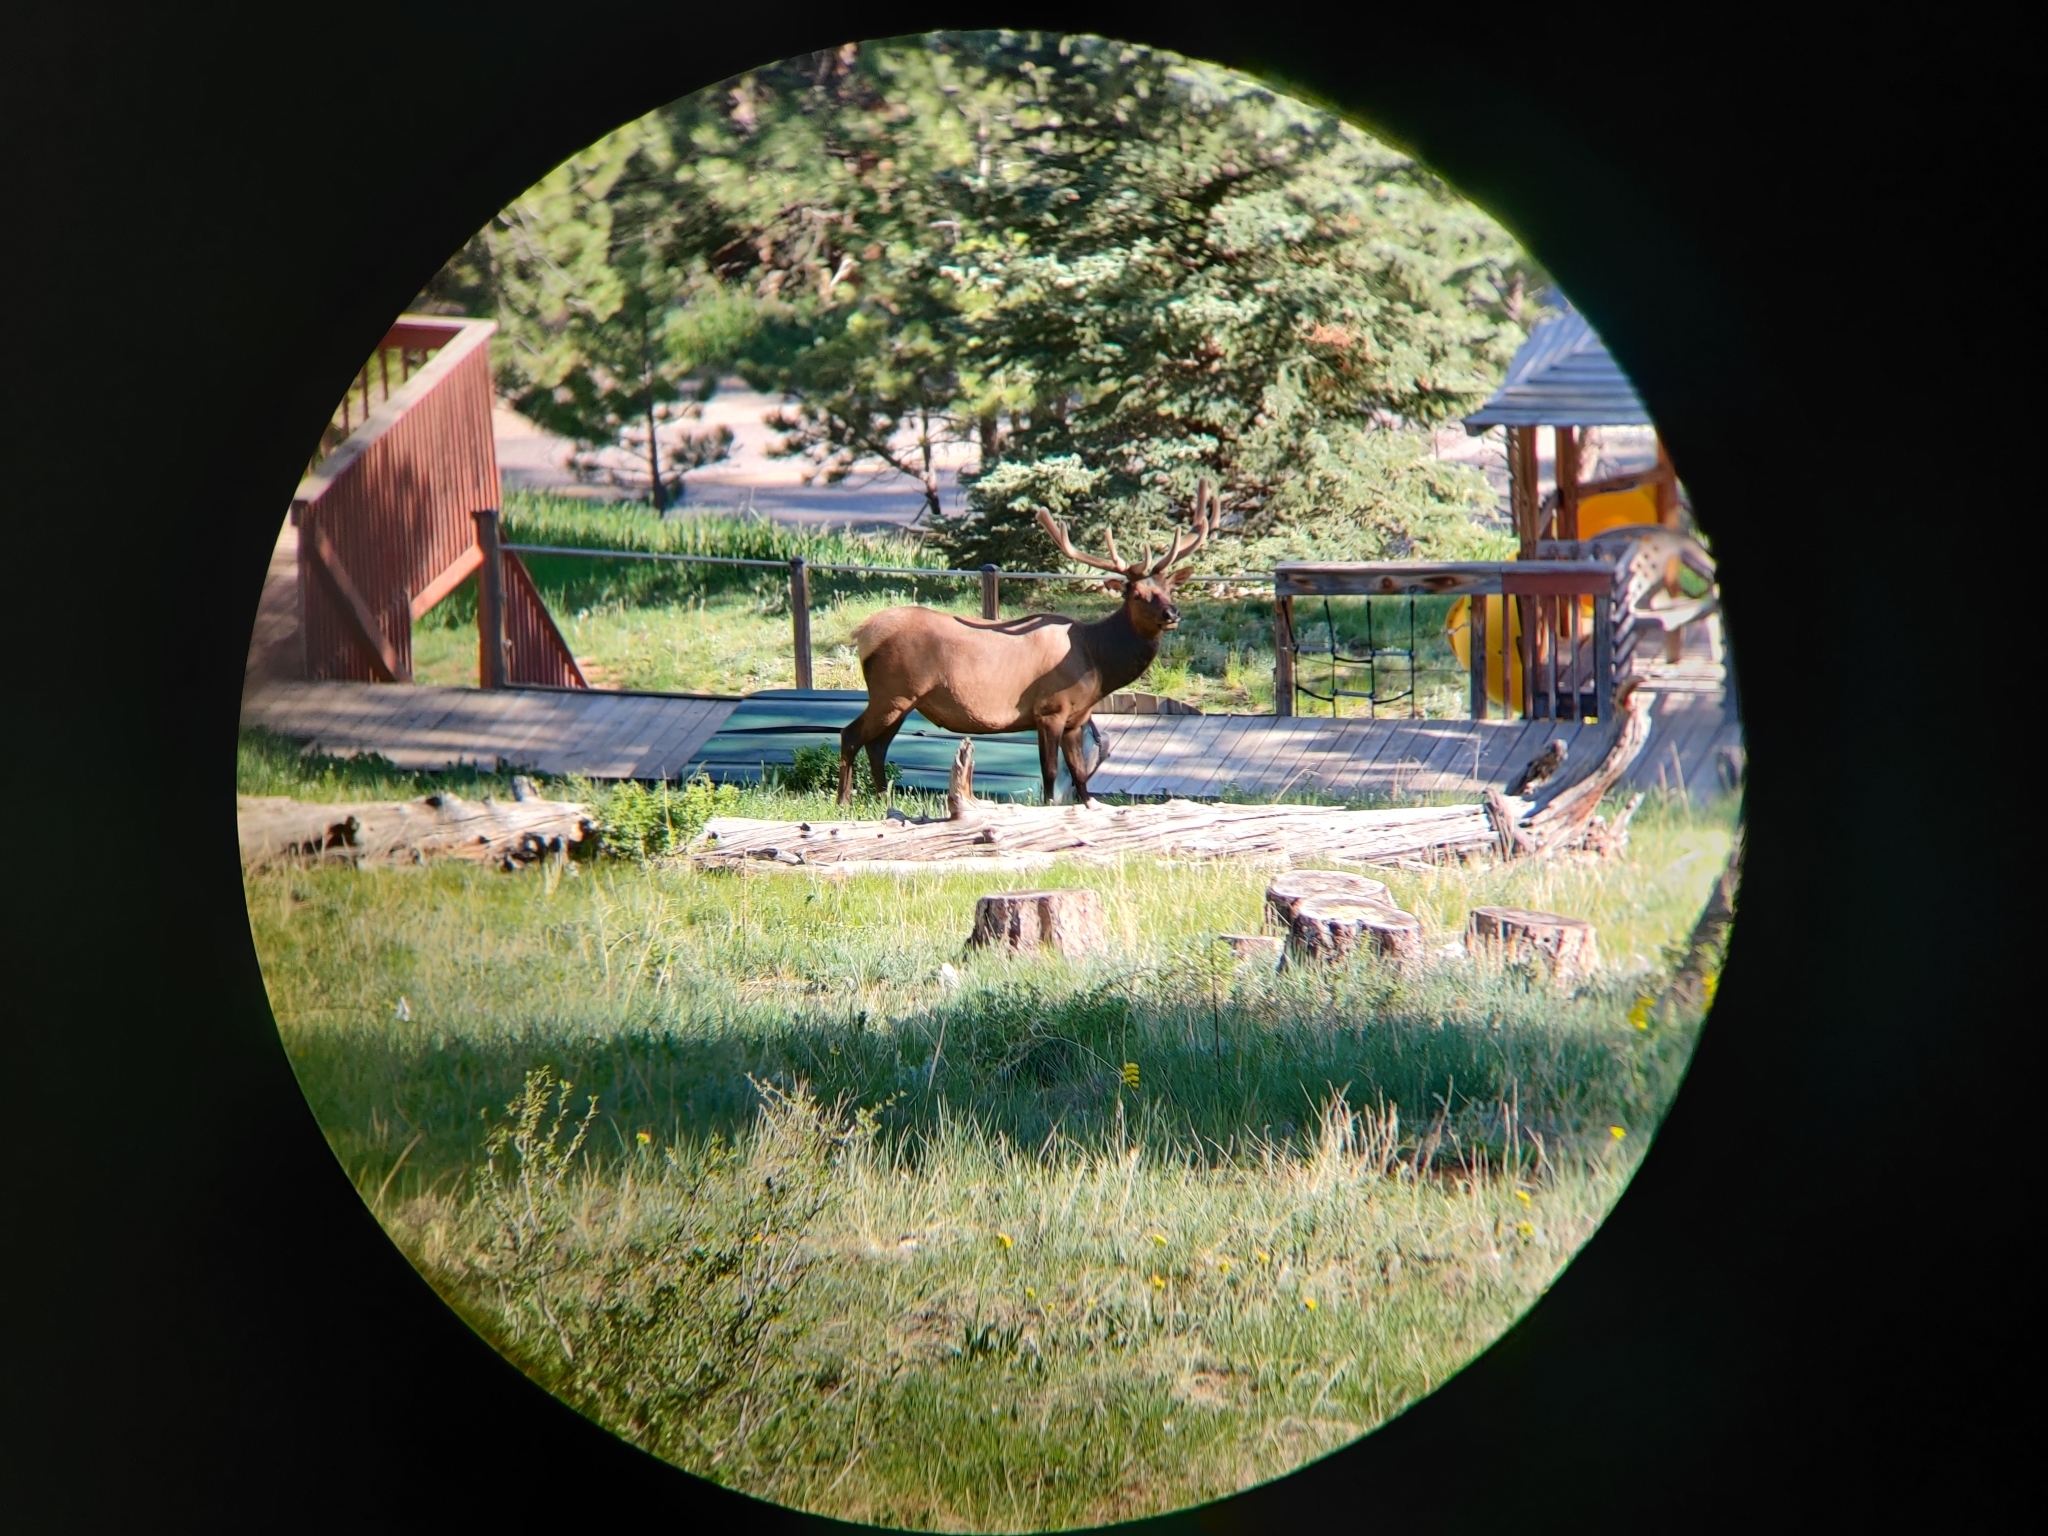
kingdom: Animalia
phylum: Chordata
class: Mammalia
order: Artiodactyla
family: Cervidae
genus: Cervus
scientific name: Cervus elaphus
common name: Red deer
